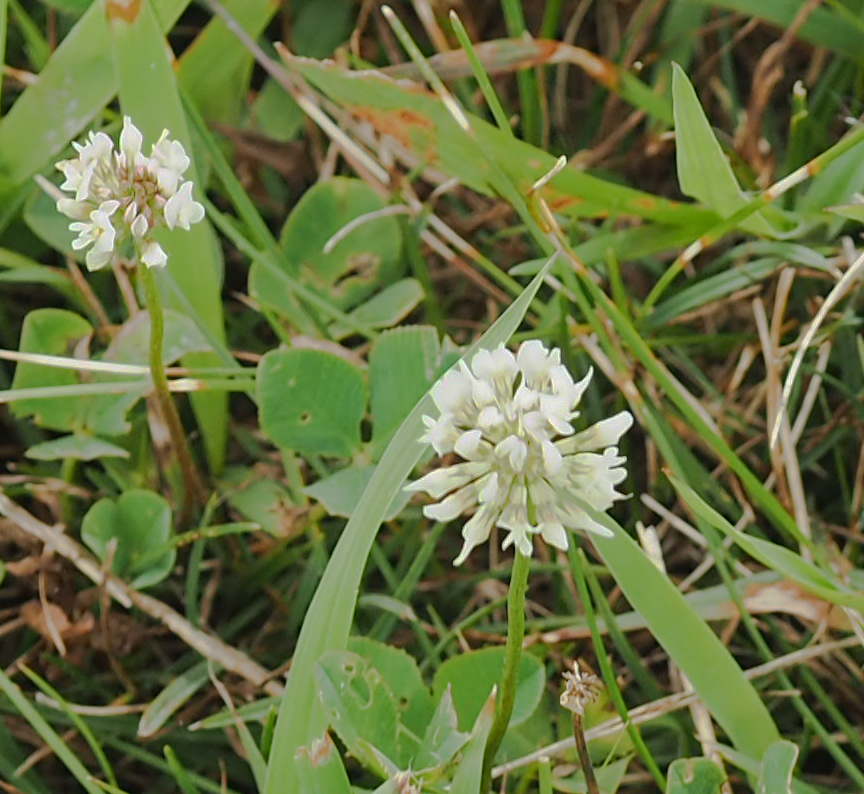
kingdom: Plantae
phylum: Tracheophyta
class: Magnoliopsida
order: Fabales
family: Fabaceae
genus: Trifolium
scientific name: Trifolium repens
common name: White clover
